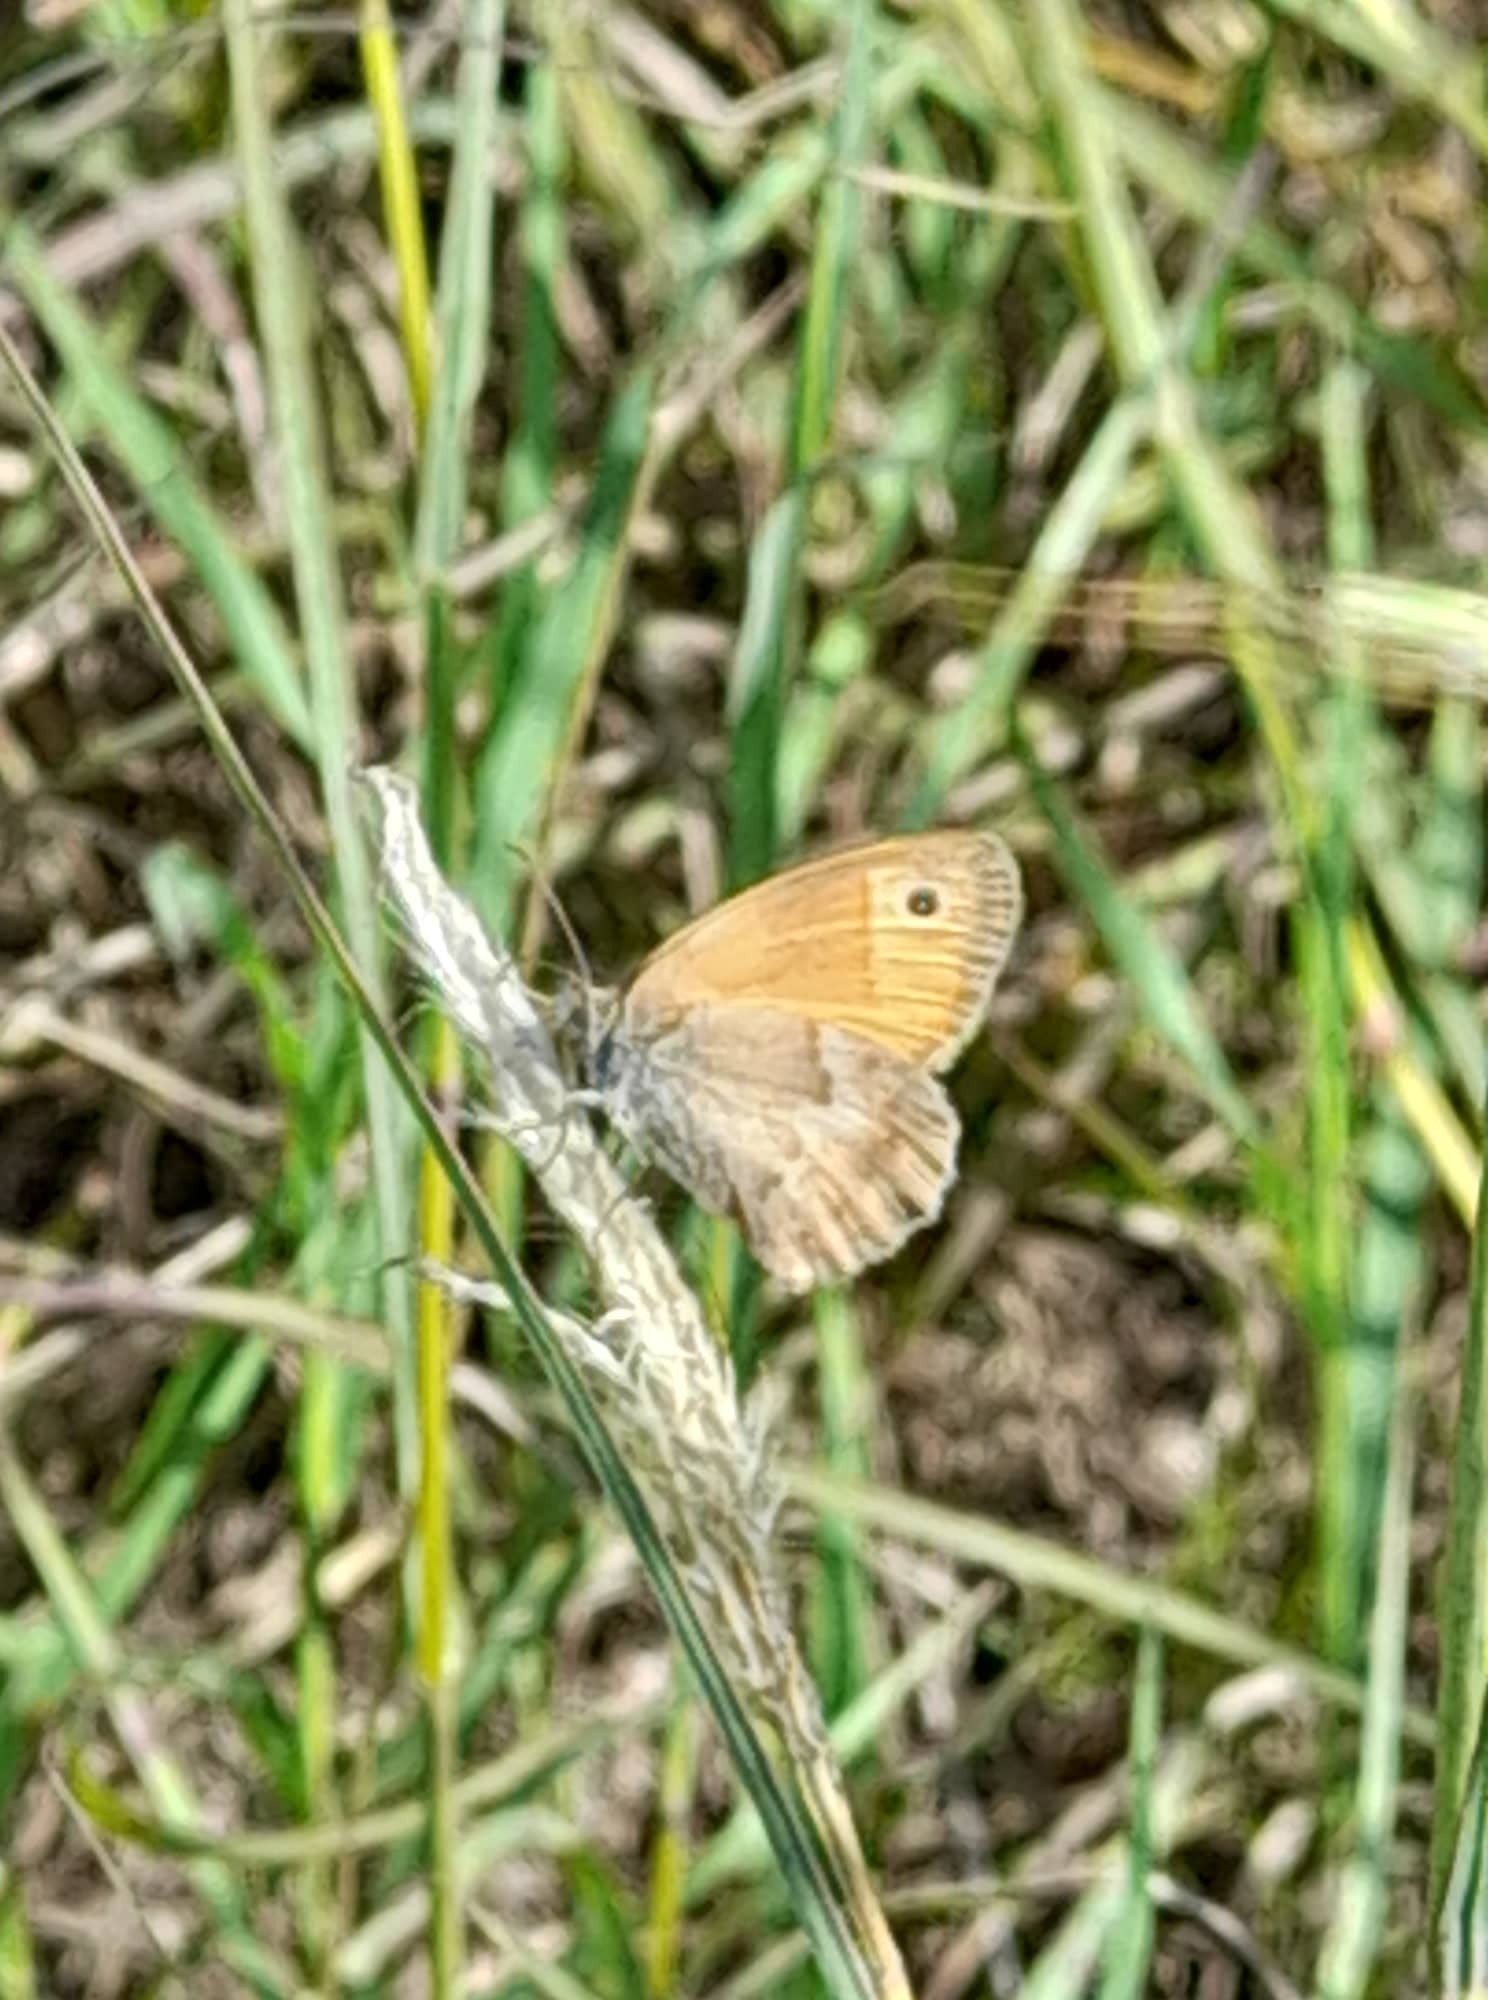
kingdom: Animalia
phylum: Arthropoda
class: Insecta
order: Lepidoptera
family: Nymphalidae
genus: Coenonympha
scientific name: Coenonympha pamphilus
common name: Small heath
